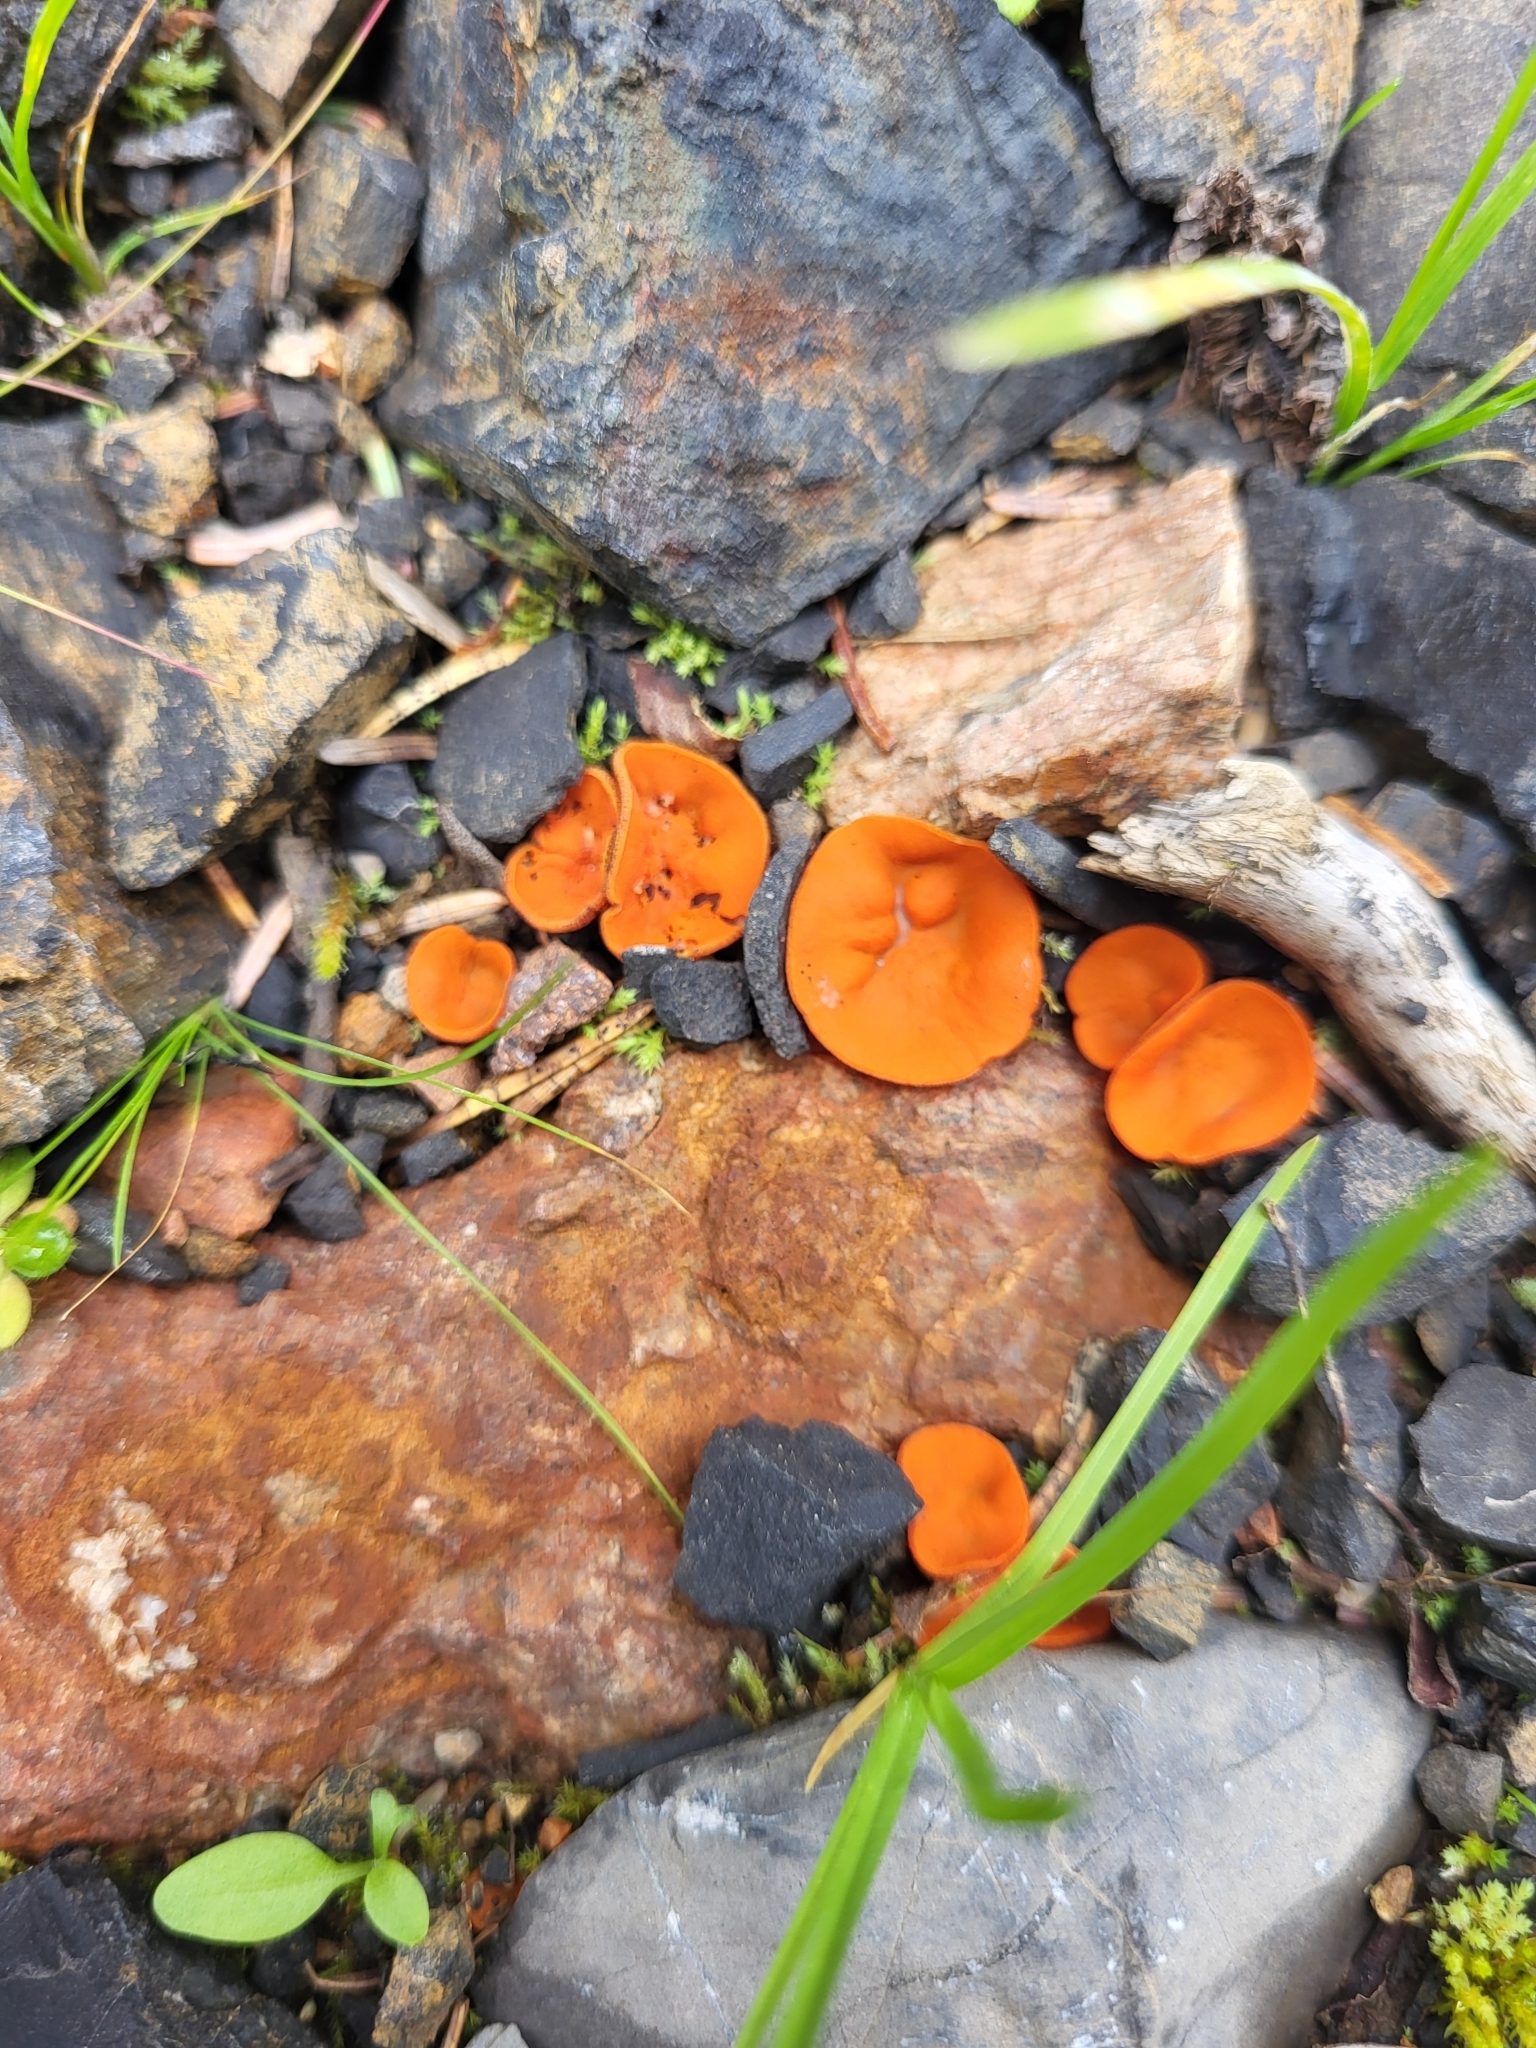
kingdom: Fungi
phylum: Ascomycota
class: Pezizomycetes
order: Pezizales
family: Pyronemataceae
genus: Aleuria
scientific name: Aleuria aurantia
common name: Orange peel fungus
